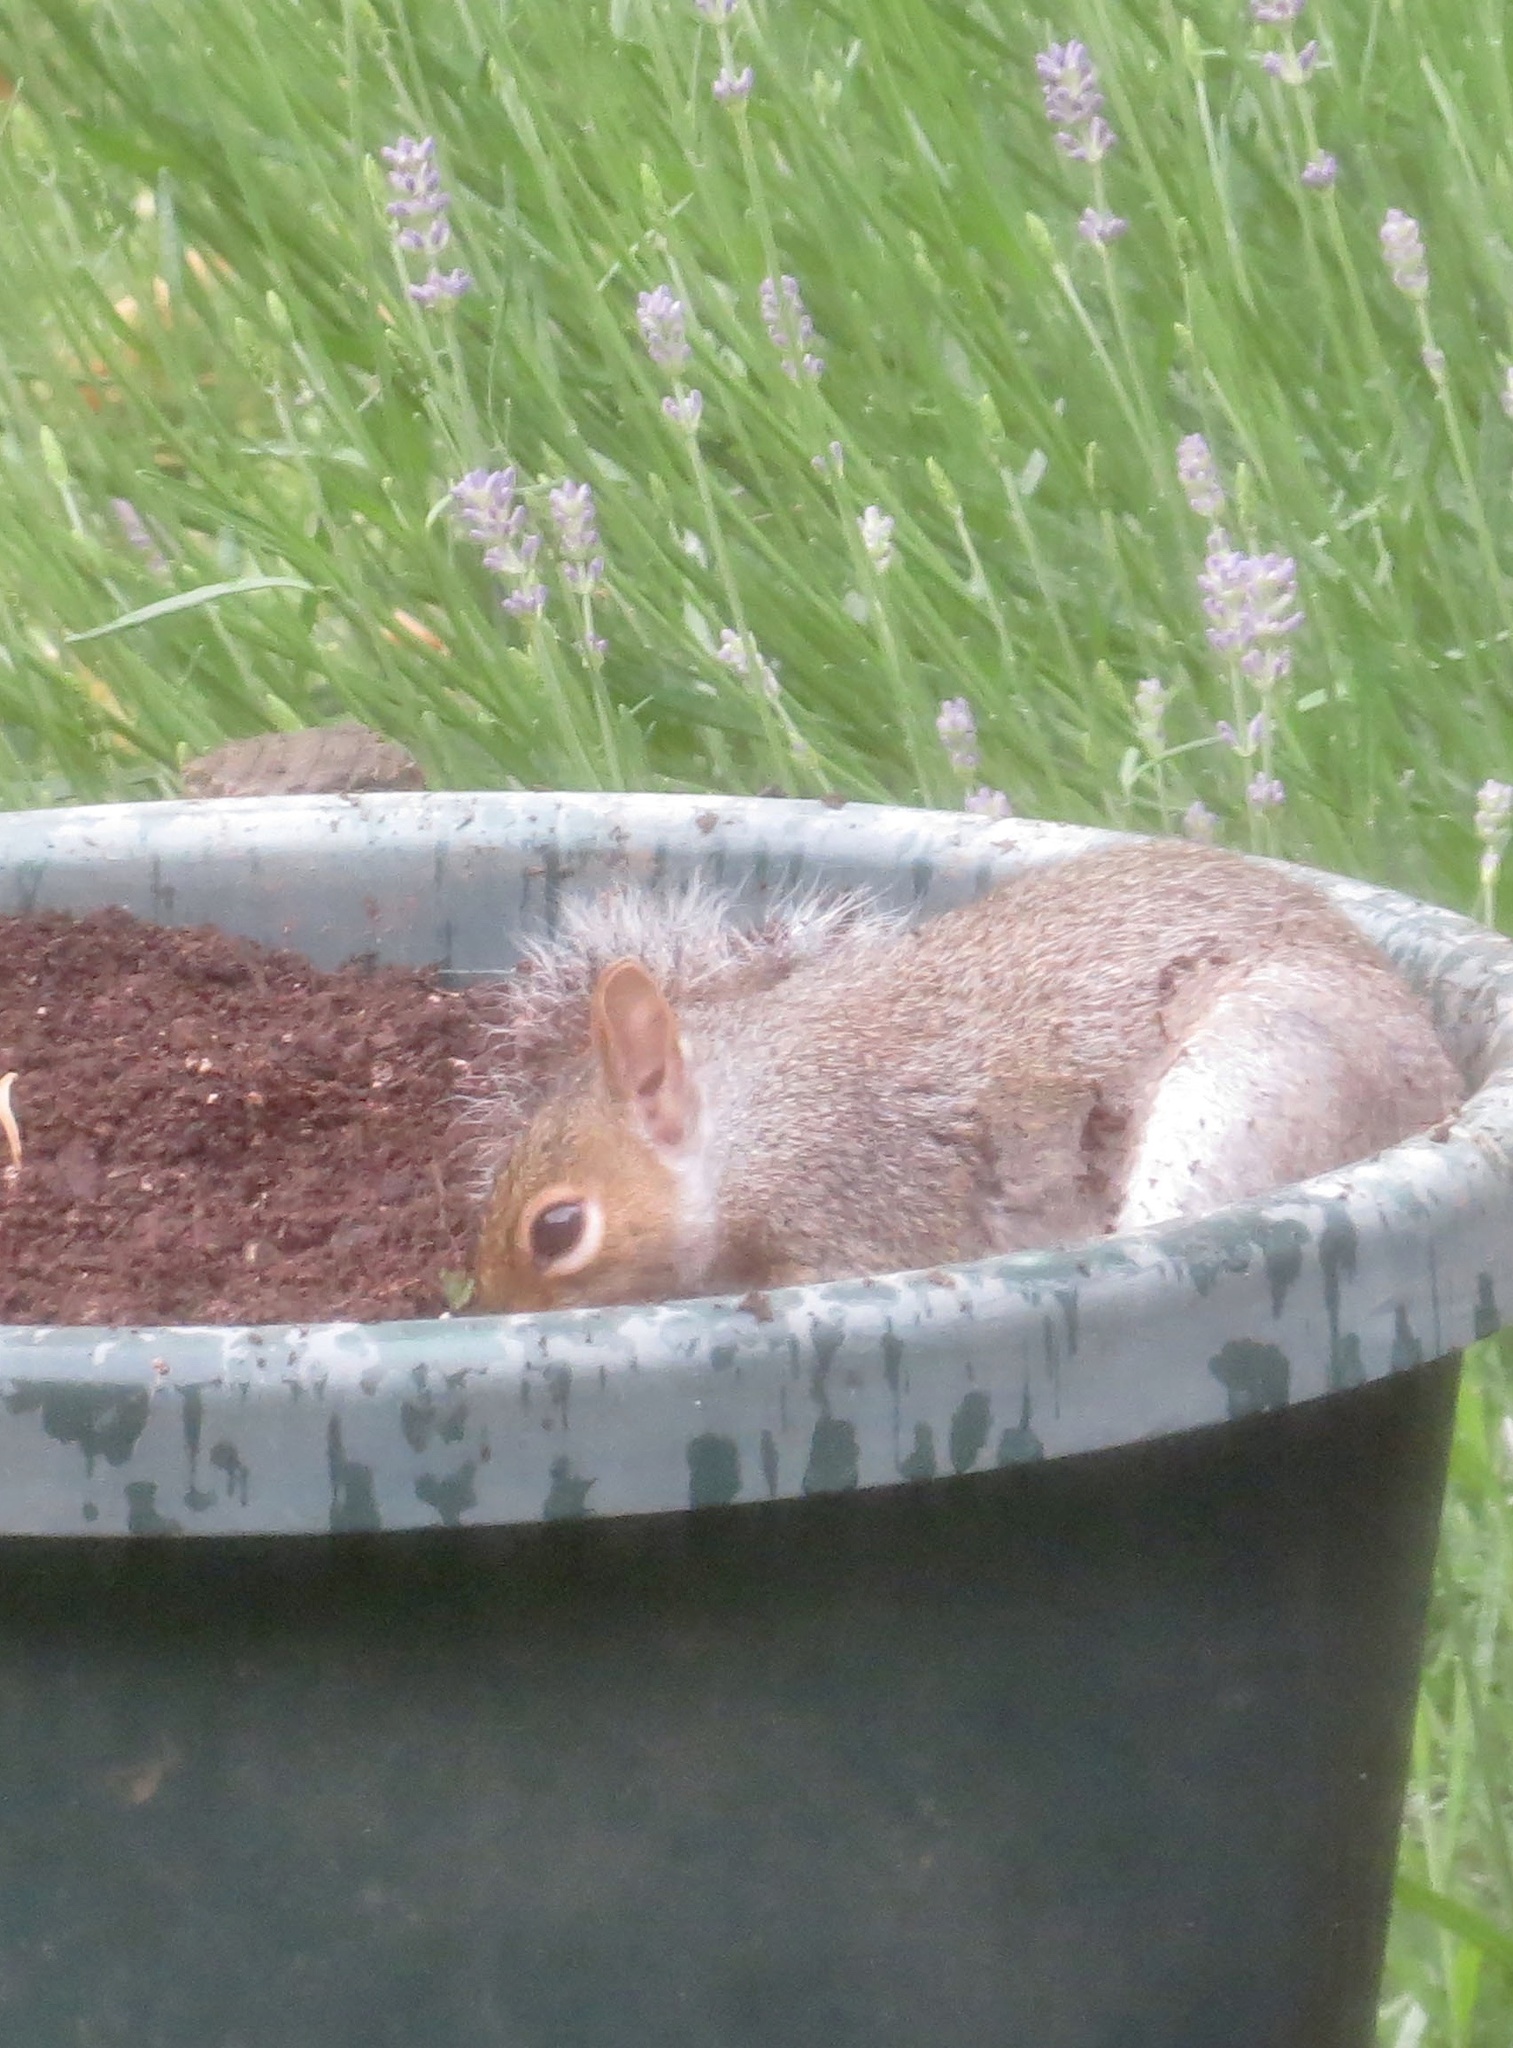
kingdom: Animalia
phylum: Chordata
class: Mammalia
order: Rodentia
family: Sciuridae
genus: Sciurus
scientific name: Sciurus carolinensis
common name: Eastern gray squirrel
